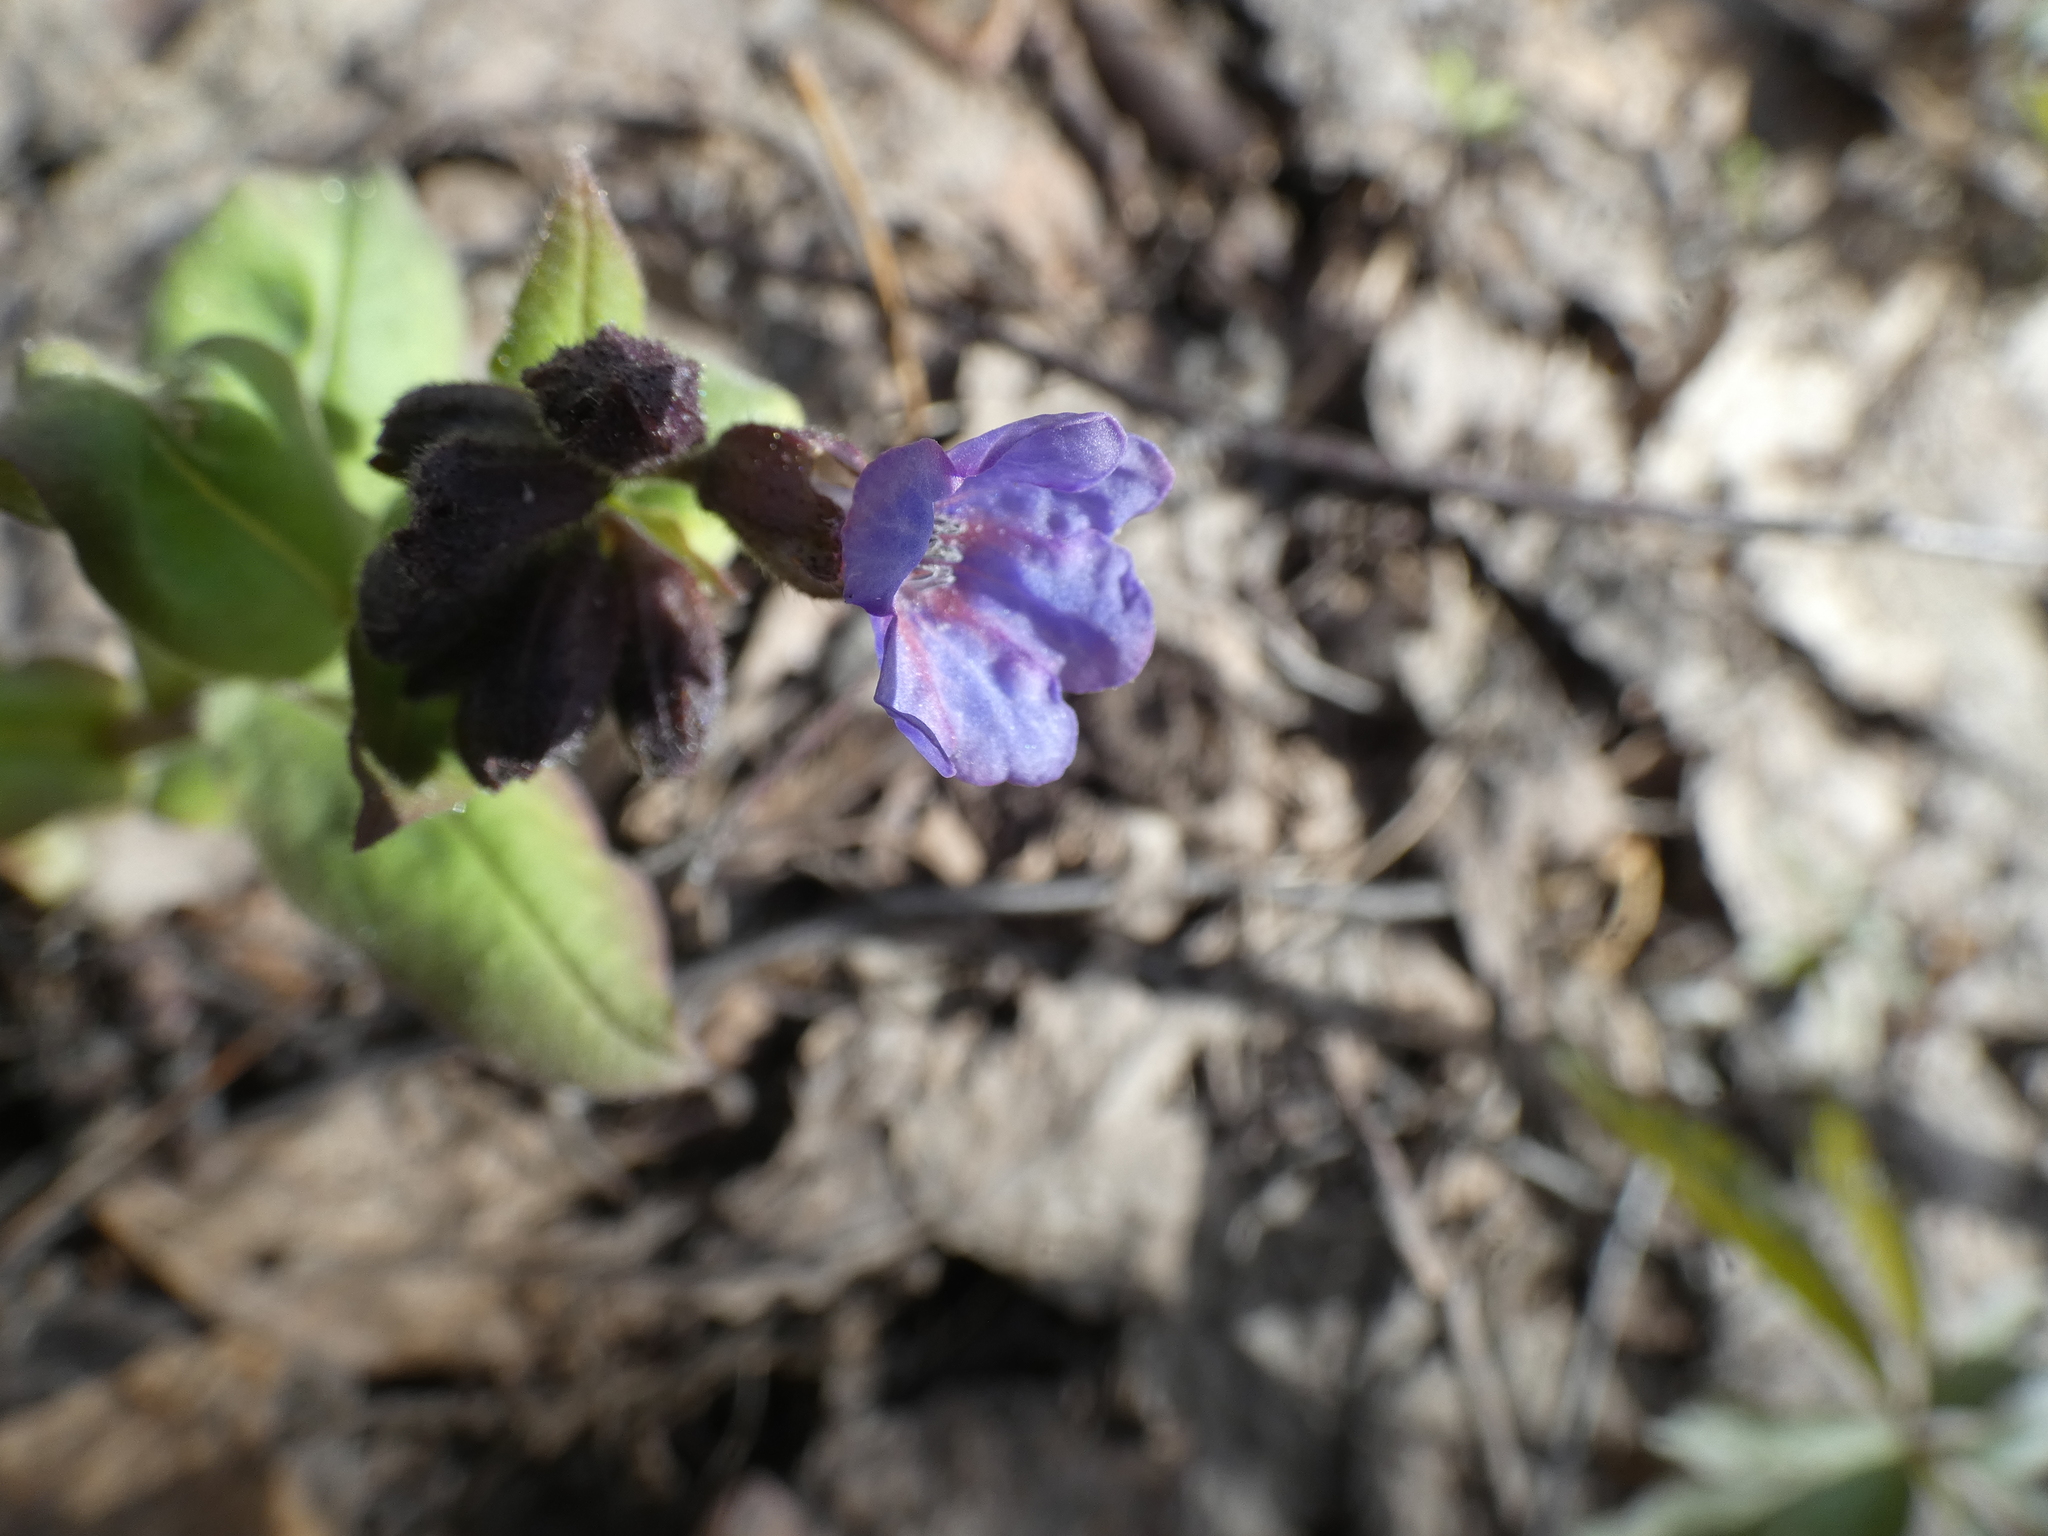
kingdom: Plantae
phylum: Tracheophyta
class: Magnoliopsida
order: Boraginales
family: Boraginaceae
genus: Pulmonaria
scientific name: Pulmonaria obscura
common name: Suffolk lungwort
